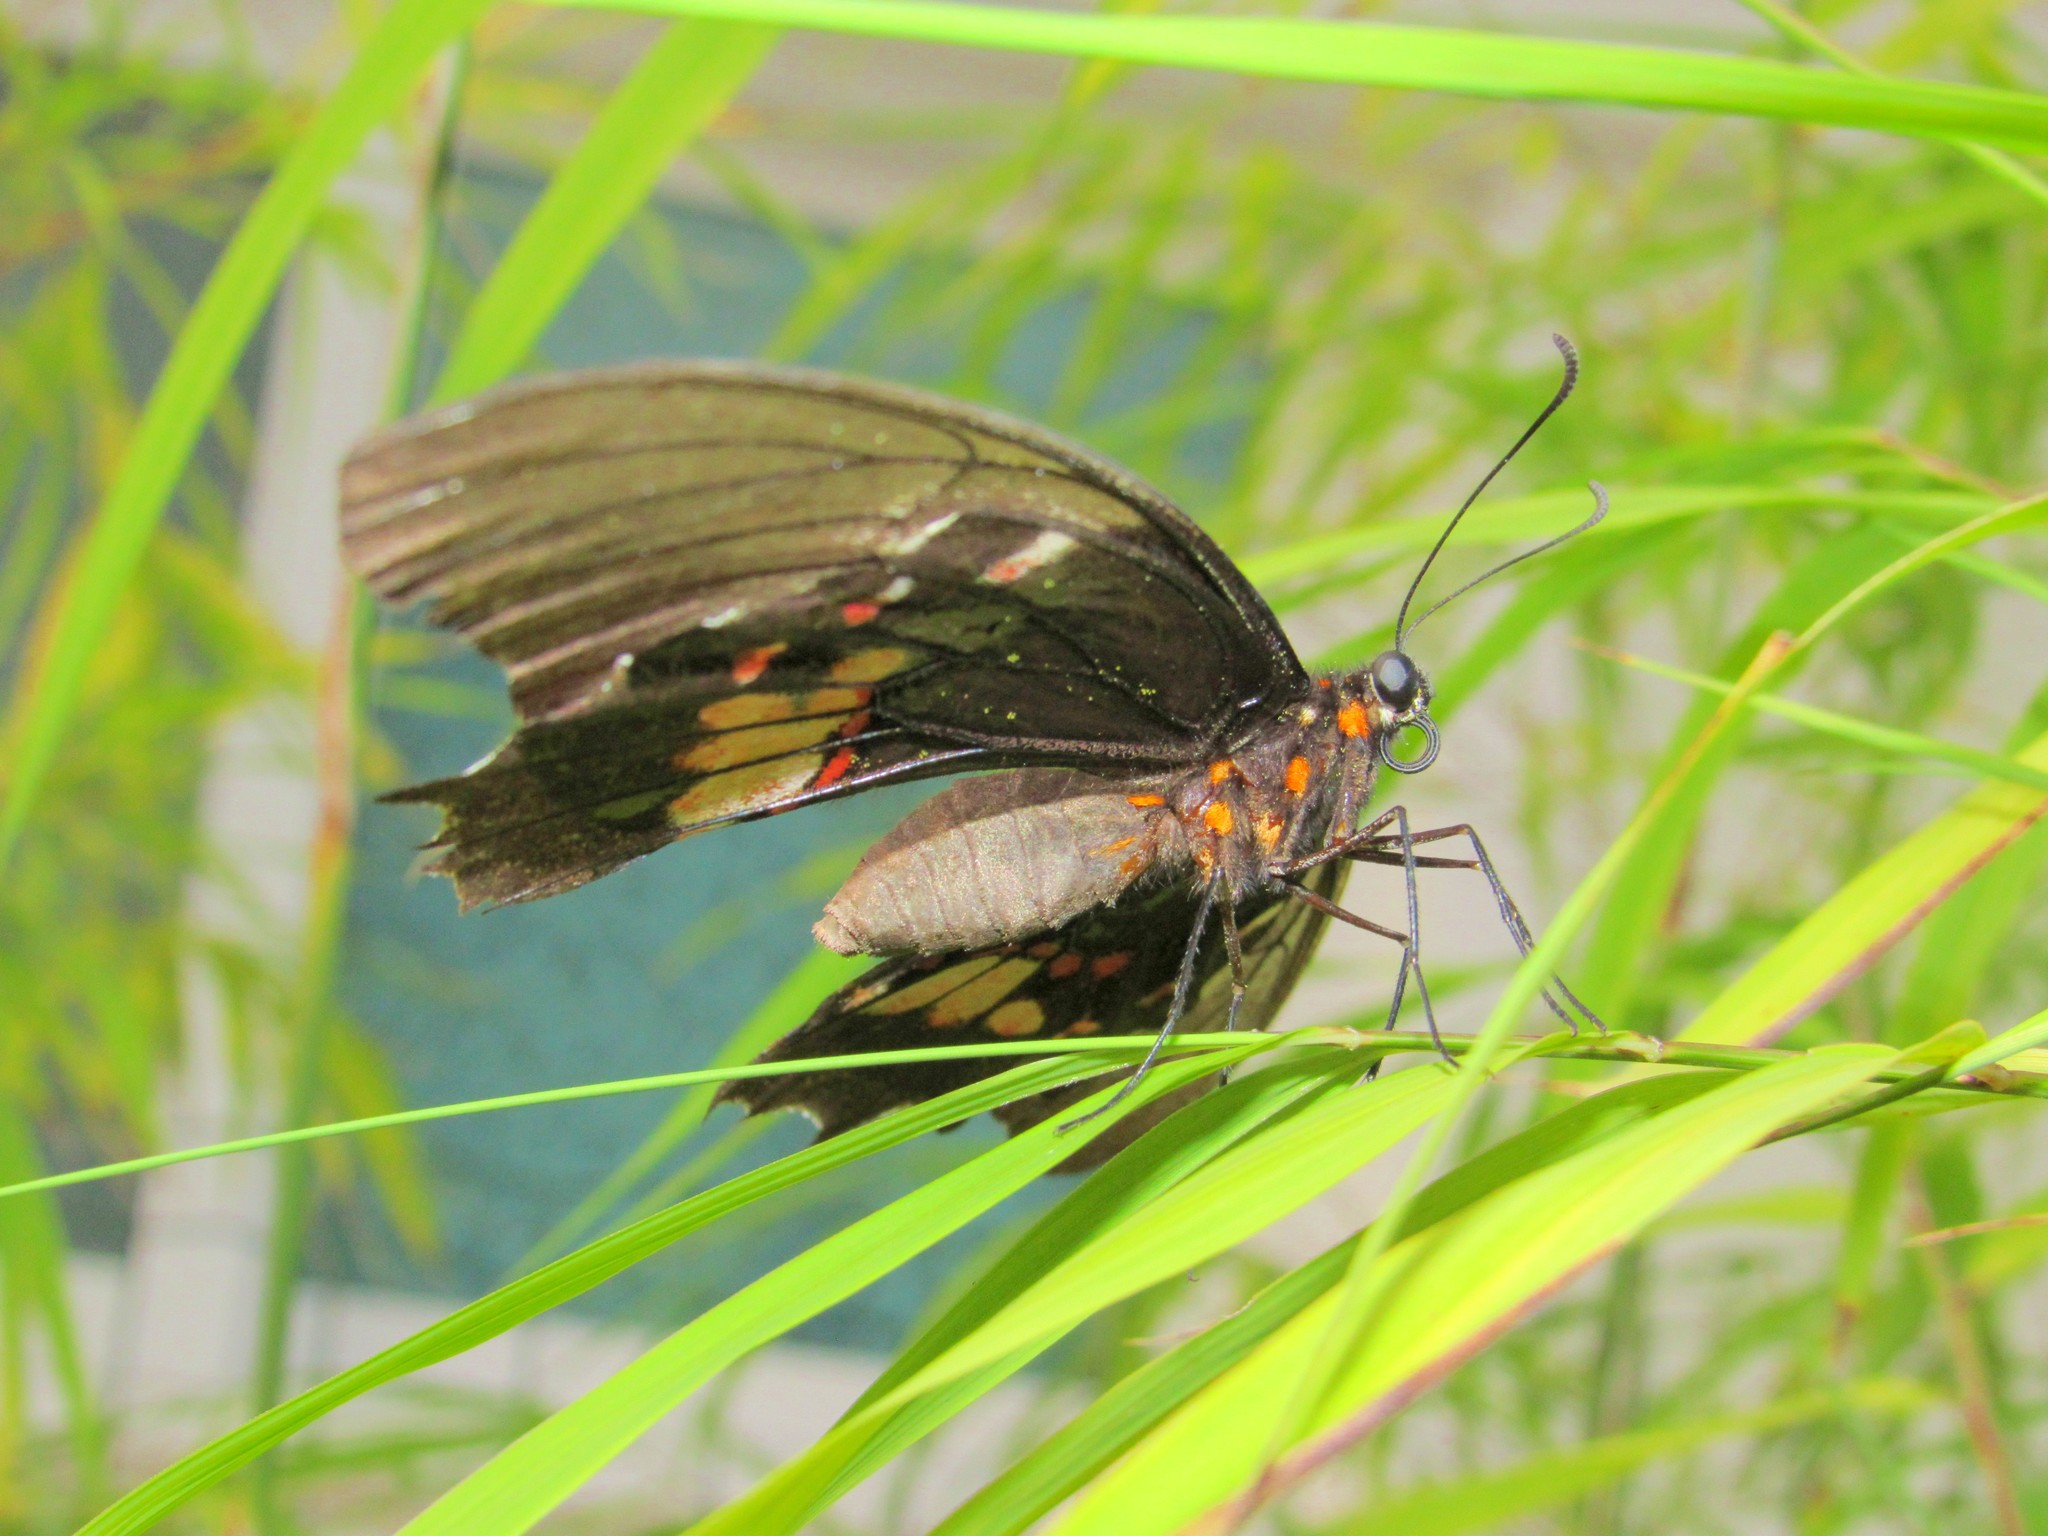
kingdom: Animalia
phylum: Arthropoda
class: Insecta
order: Lepidoptera
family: Papilionidae
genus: Papilio
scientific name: Papilio anchisiades
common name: Idaes swallowtail
